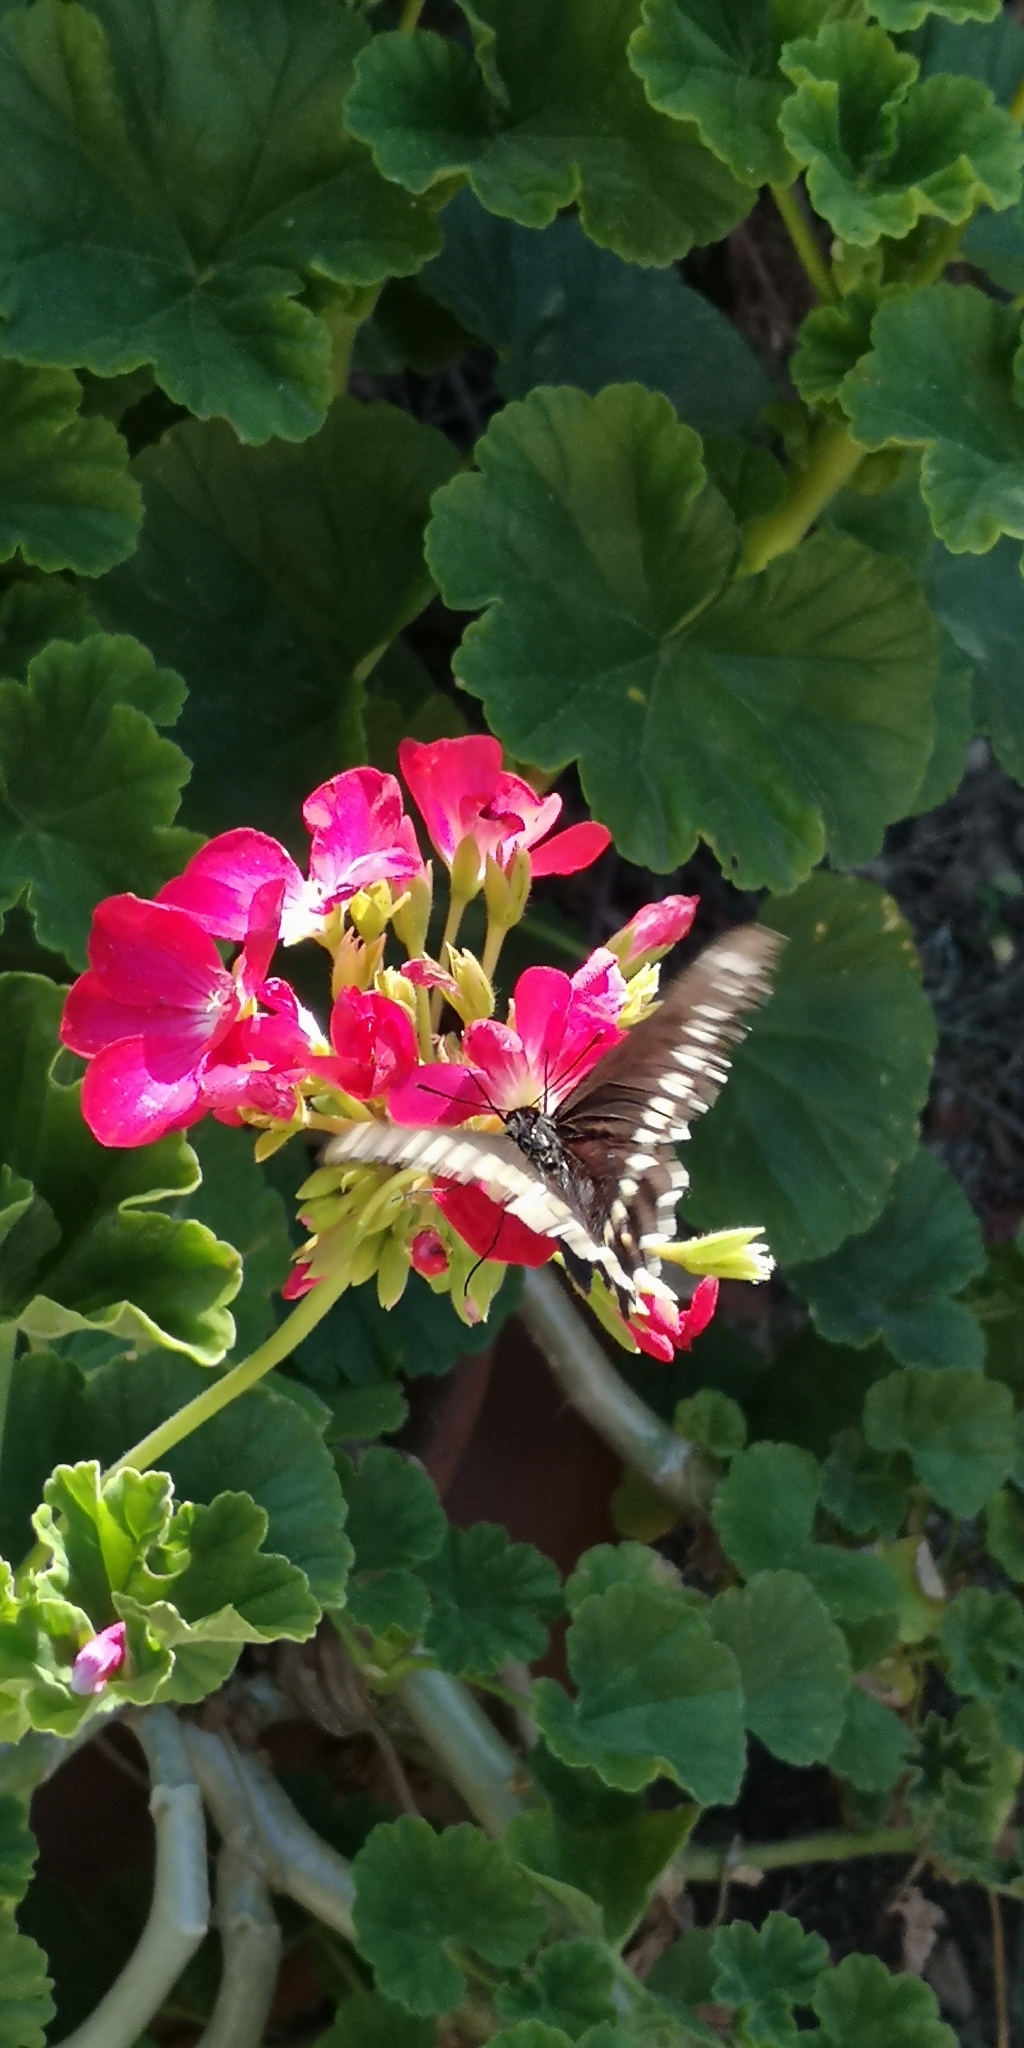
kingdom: Animalia
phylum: Arthropoda
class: Insecta
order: Lepidoptera
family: Papilionidae
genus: Battus
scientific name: Battus polydamas
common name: Polydamas swallowtail
